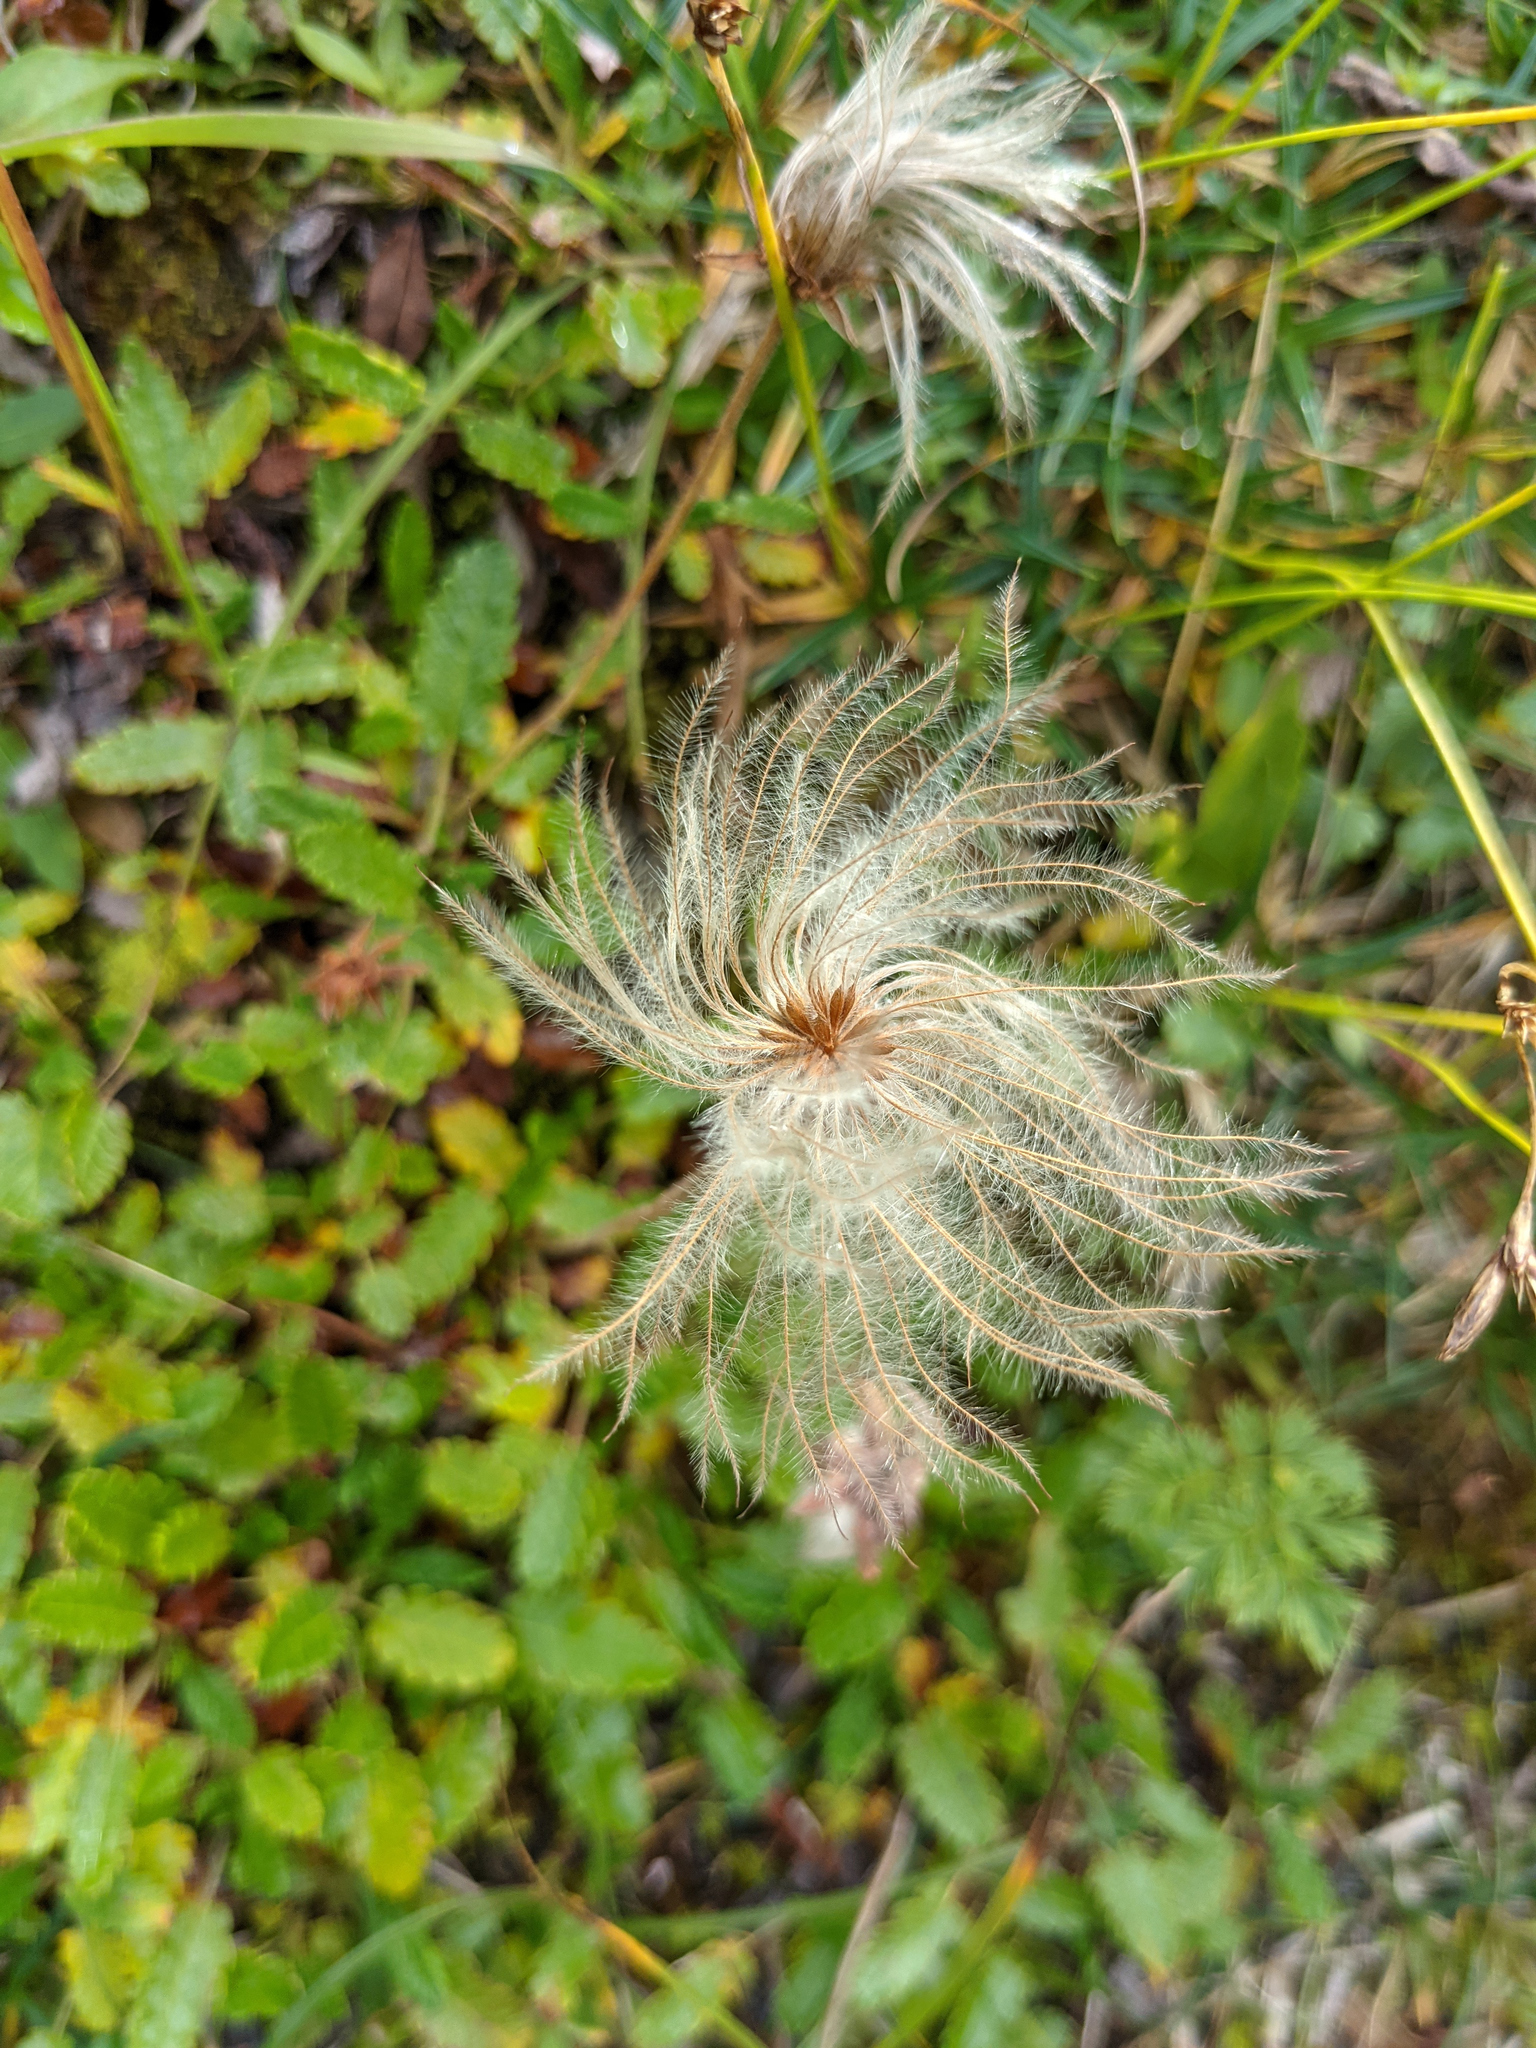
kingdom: Plantae
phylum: Tracheophyta
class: Magnoliopsida
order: Rosales
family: Rosaceae
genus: Dryas
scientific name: Dryas octopetala
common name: Eight-petal mountain-avens
